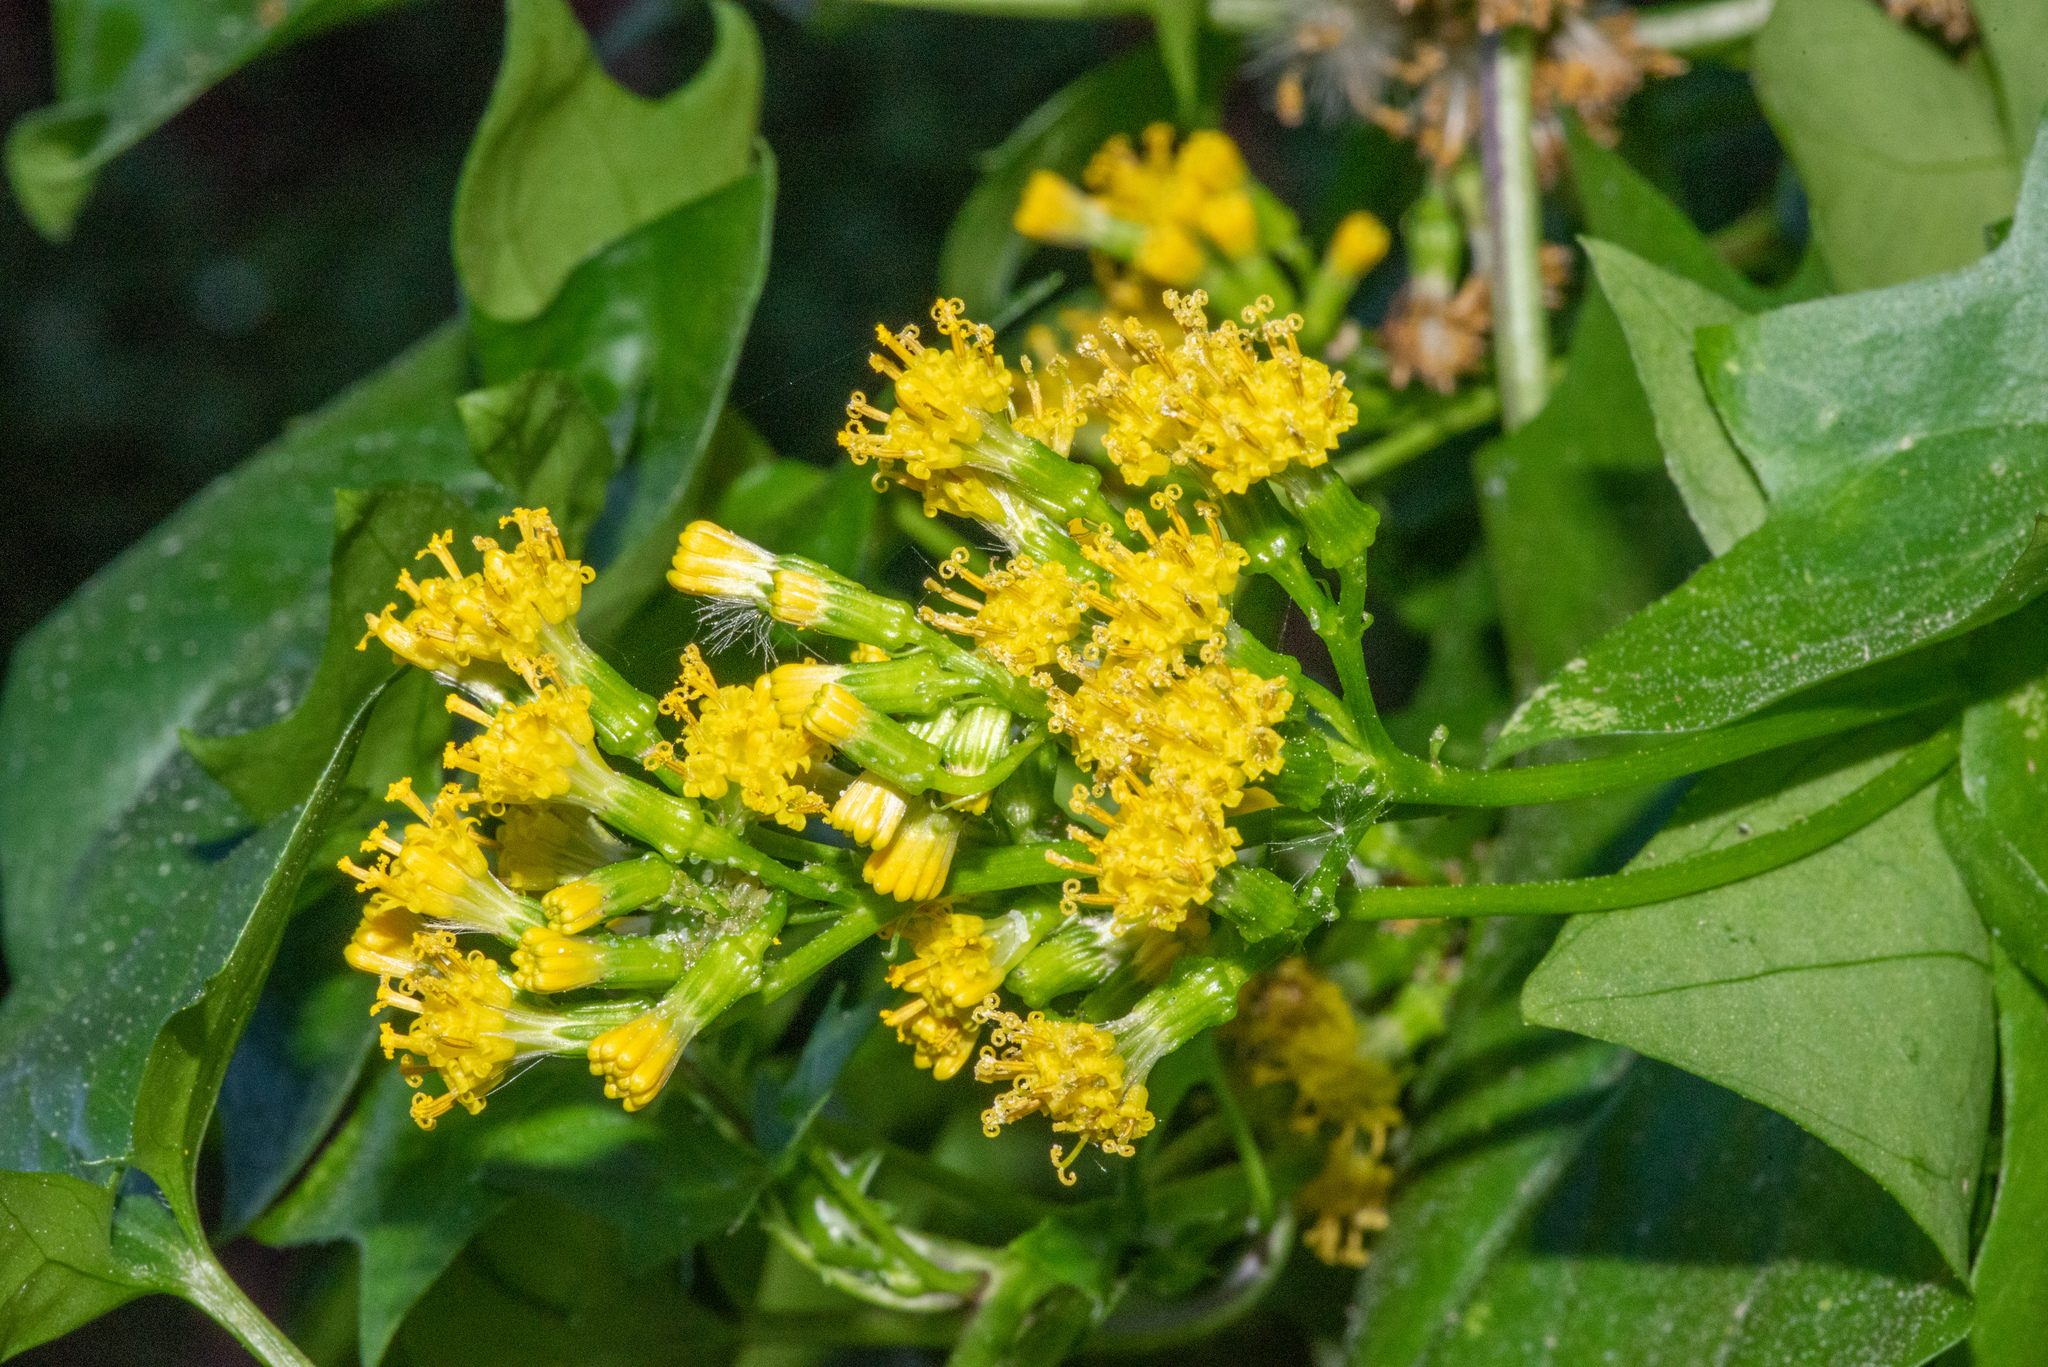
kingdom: Plantae
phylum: Tracheophyta
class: Magnoliopsida
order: Asterales
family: Asteraceae
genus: Delairea
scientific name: Delairea odorata
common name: Cape-ivy
